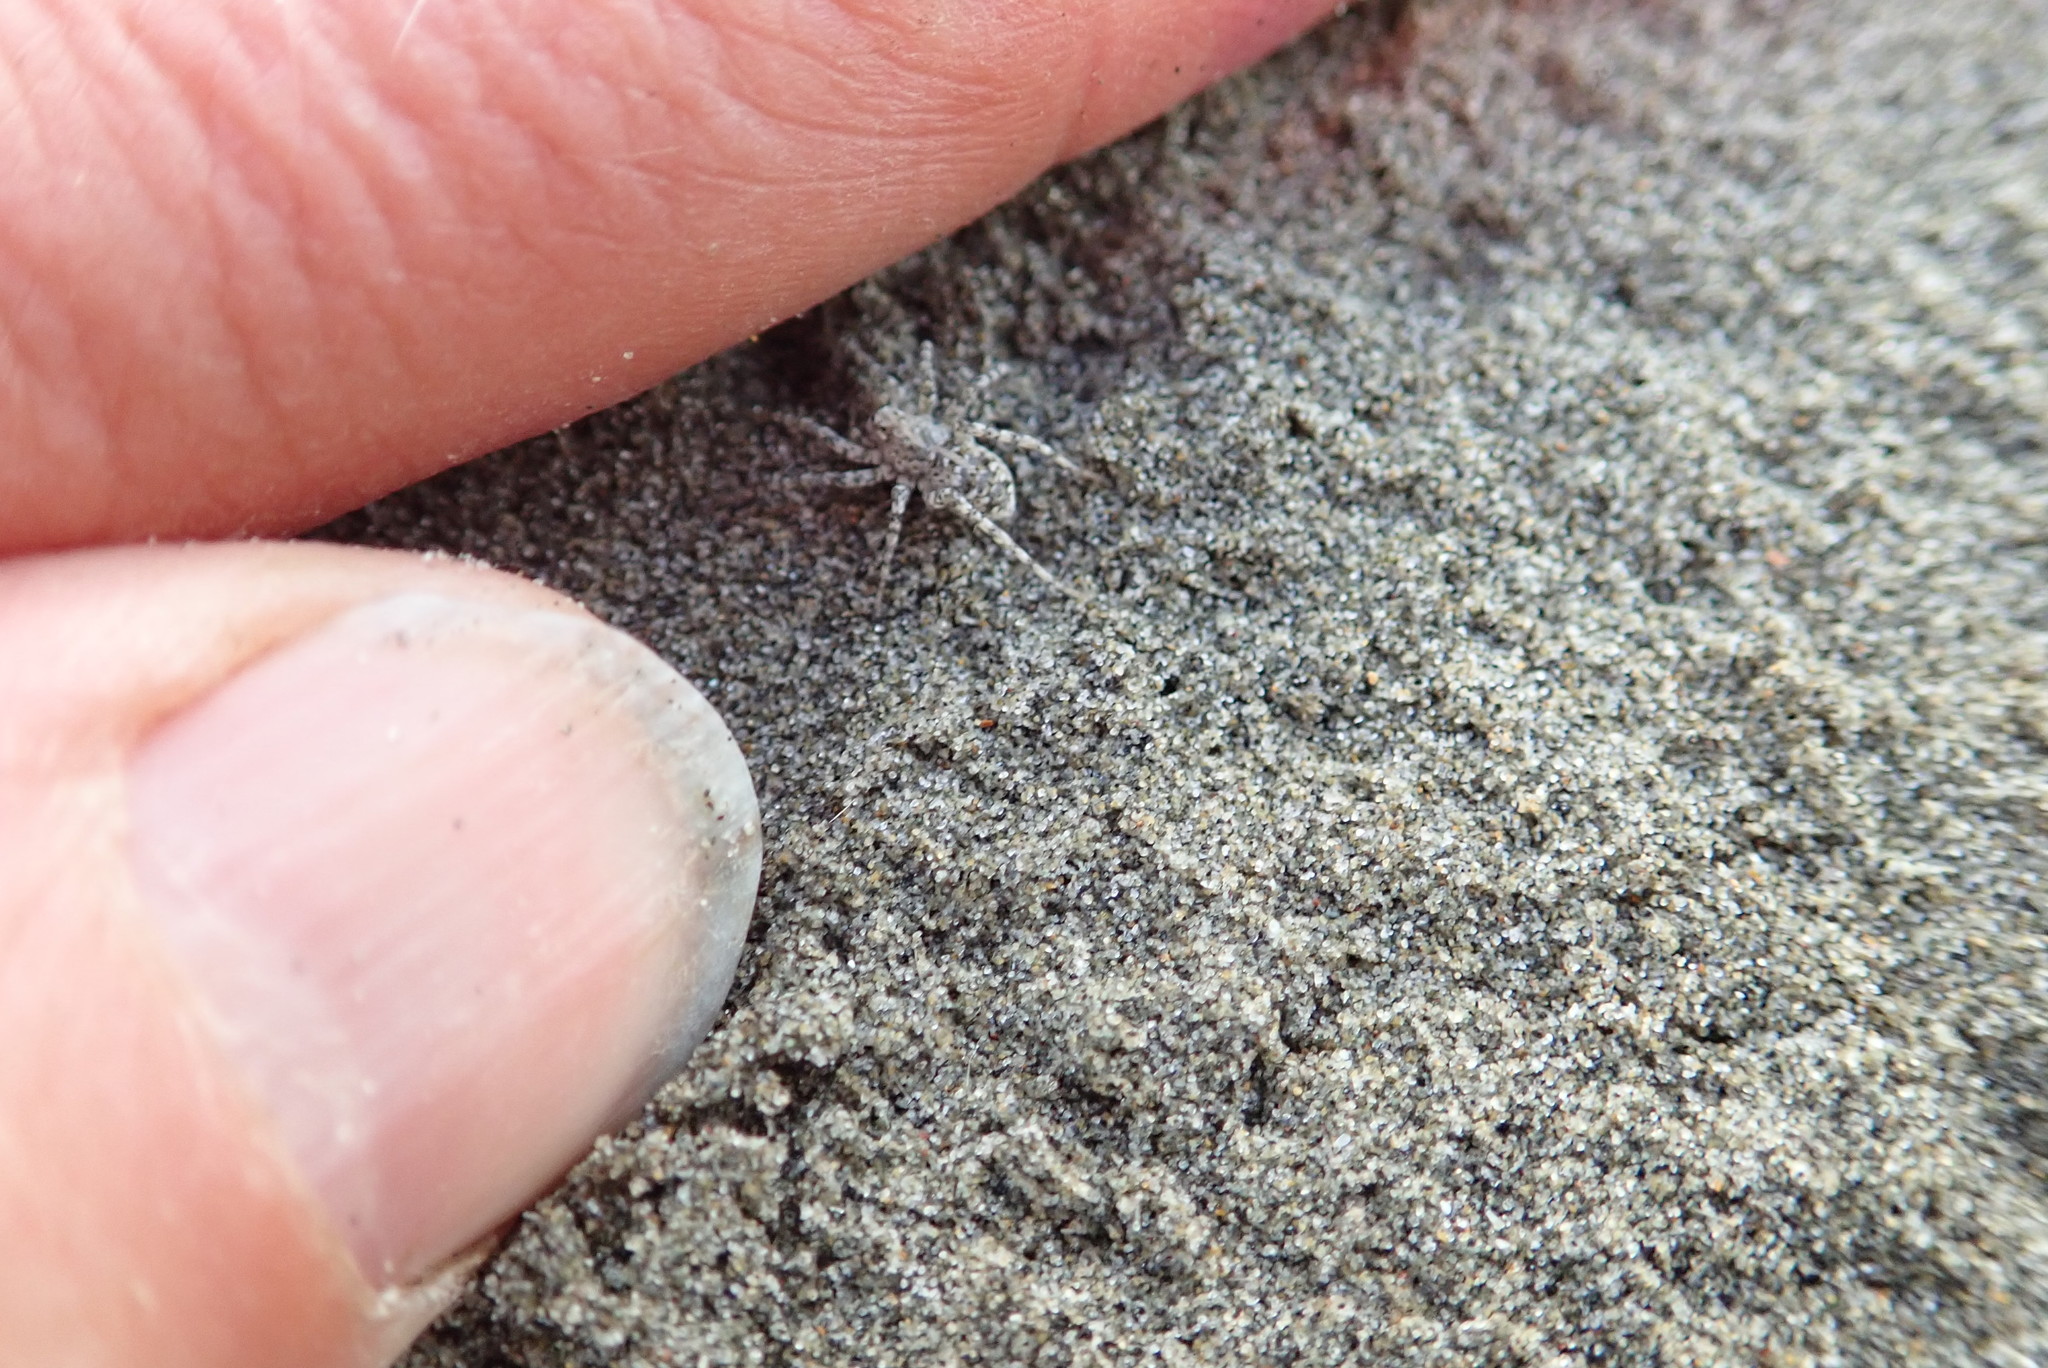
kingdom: Animalia
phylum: Arthropoda
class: Arachnida
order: Araneae
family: Lycosidae
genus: Anoteropsis
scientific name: Anoteropsis litoralis
